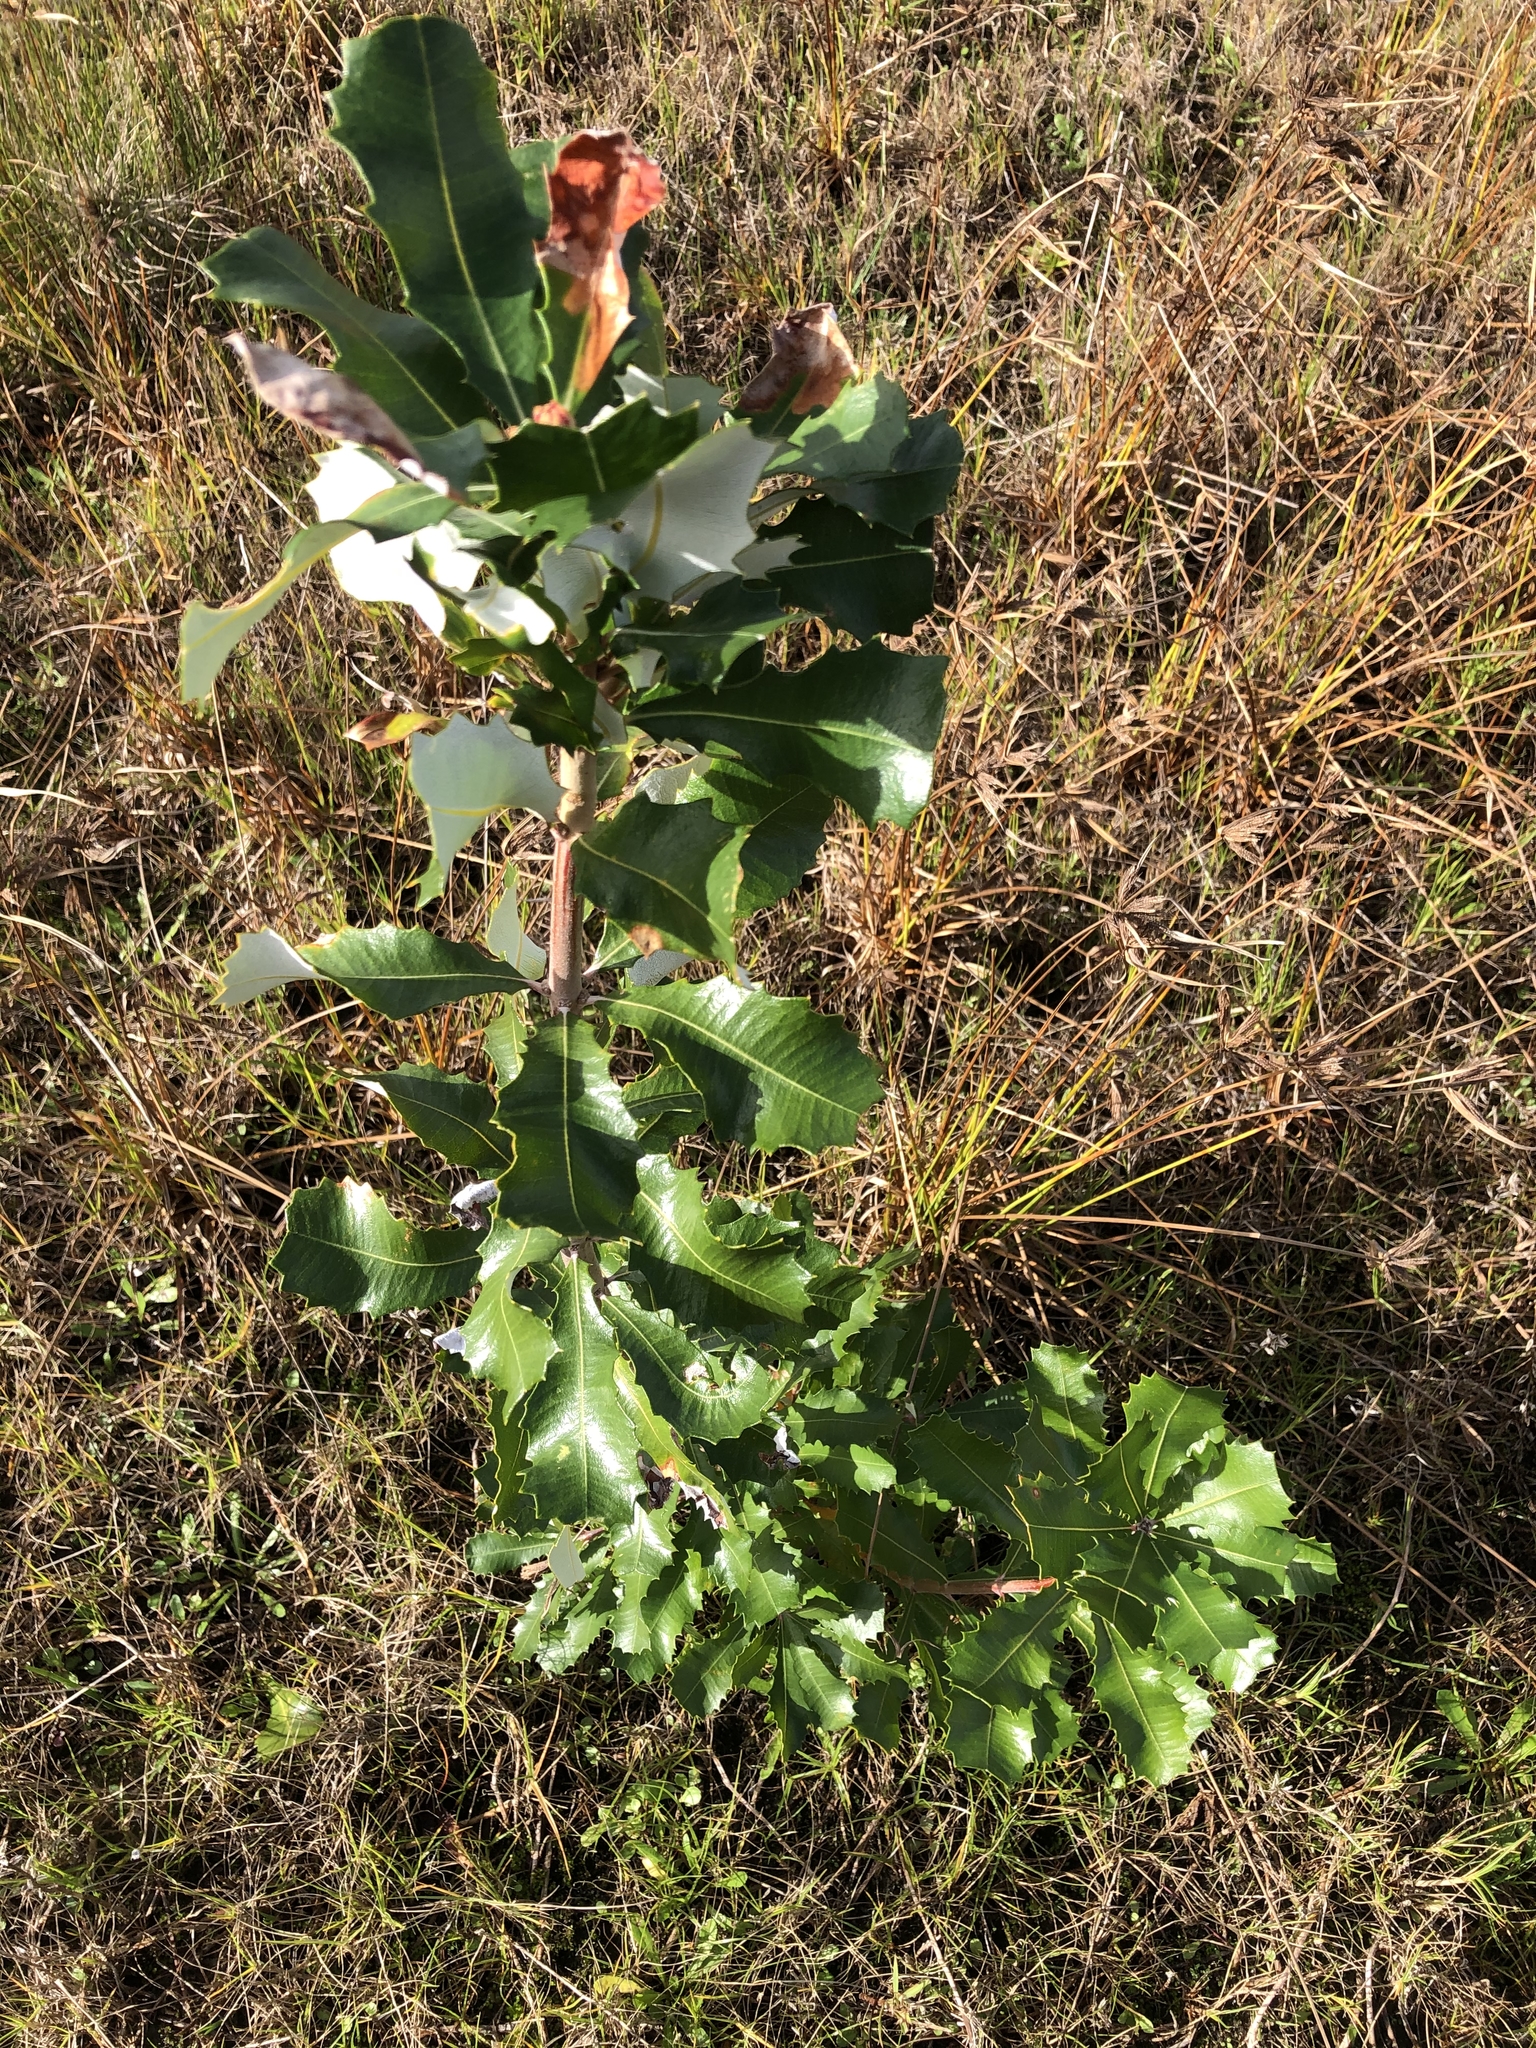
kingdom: Plantae
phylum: Tracheophyta
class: Magnoliopsida
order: Proteales
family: Proteaceae
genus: Banksia
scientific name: Banksia integrifolia
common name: White-honeysuckle
